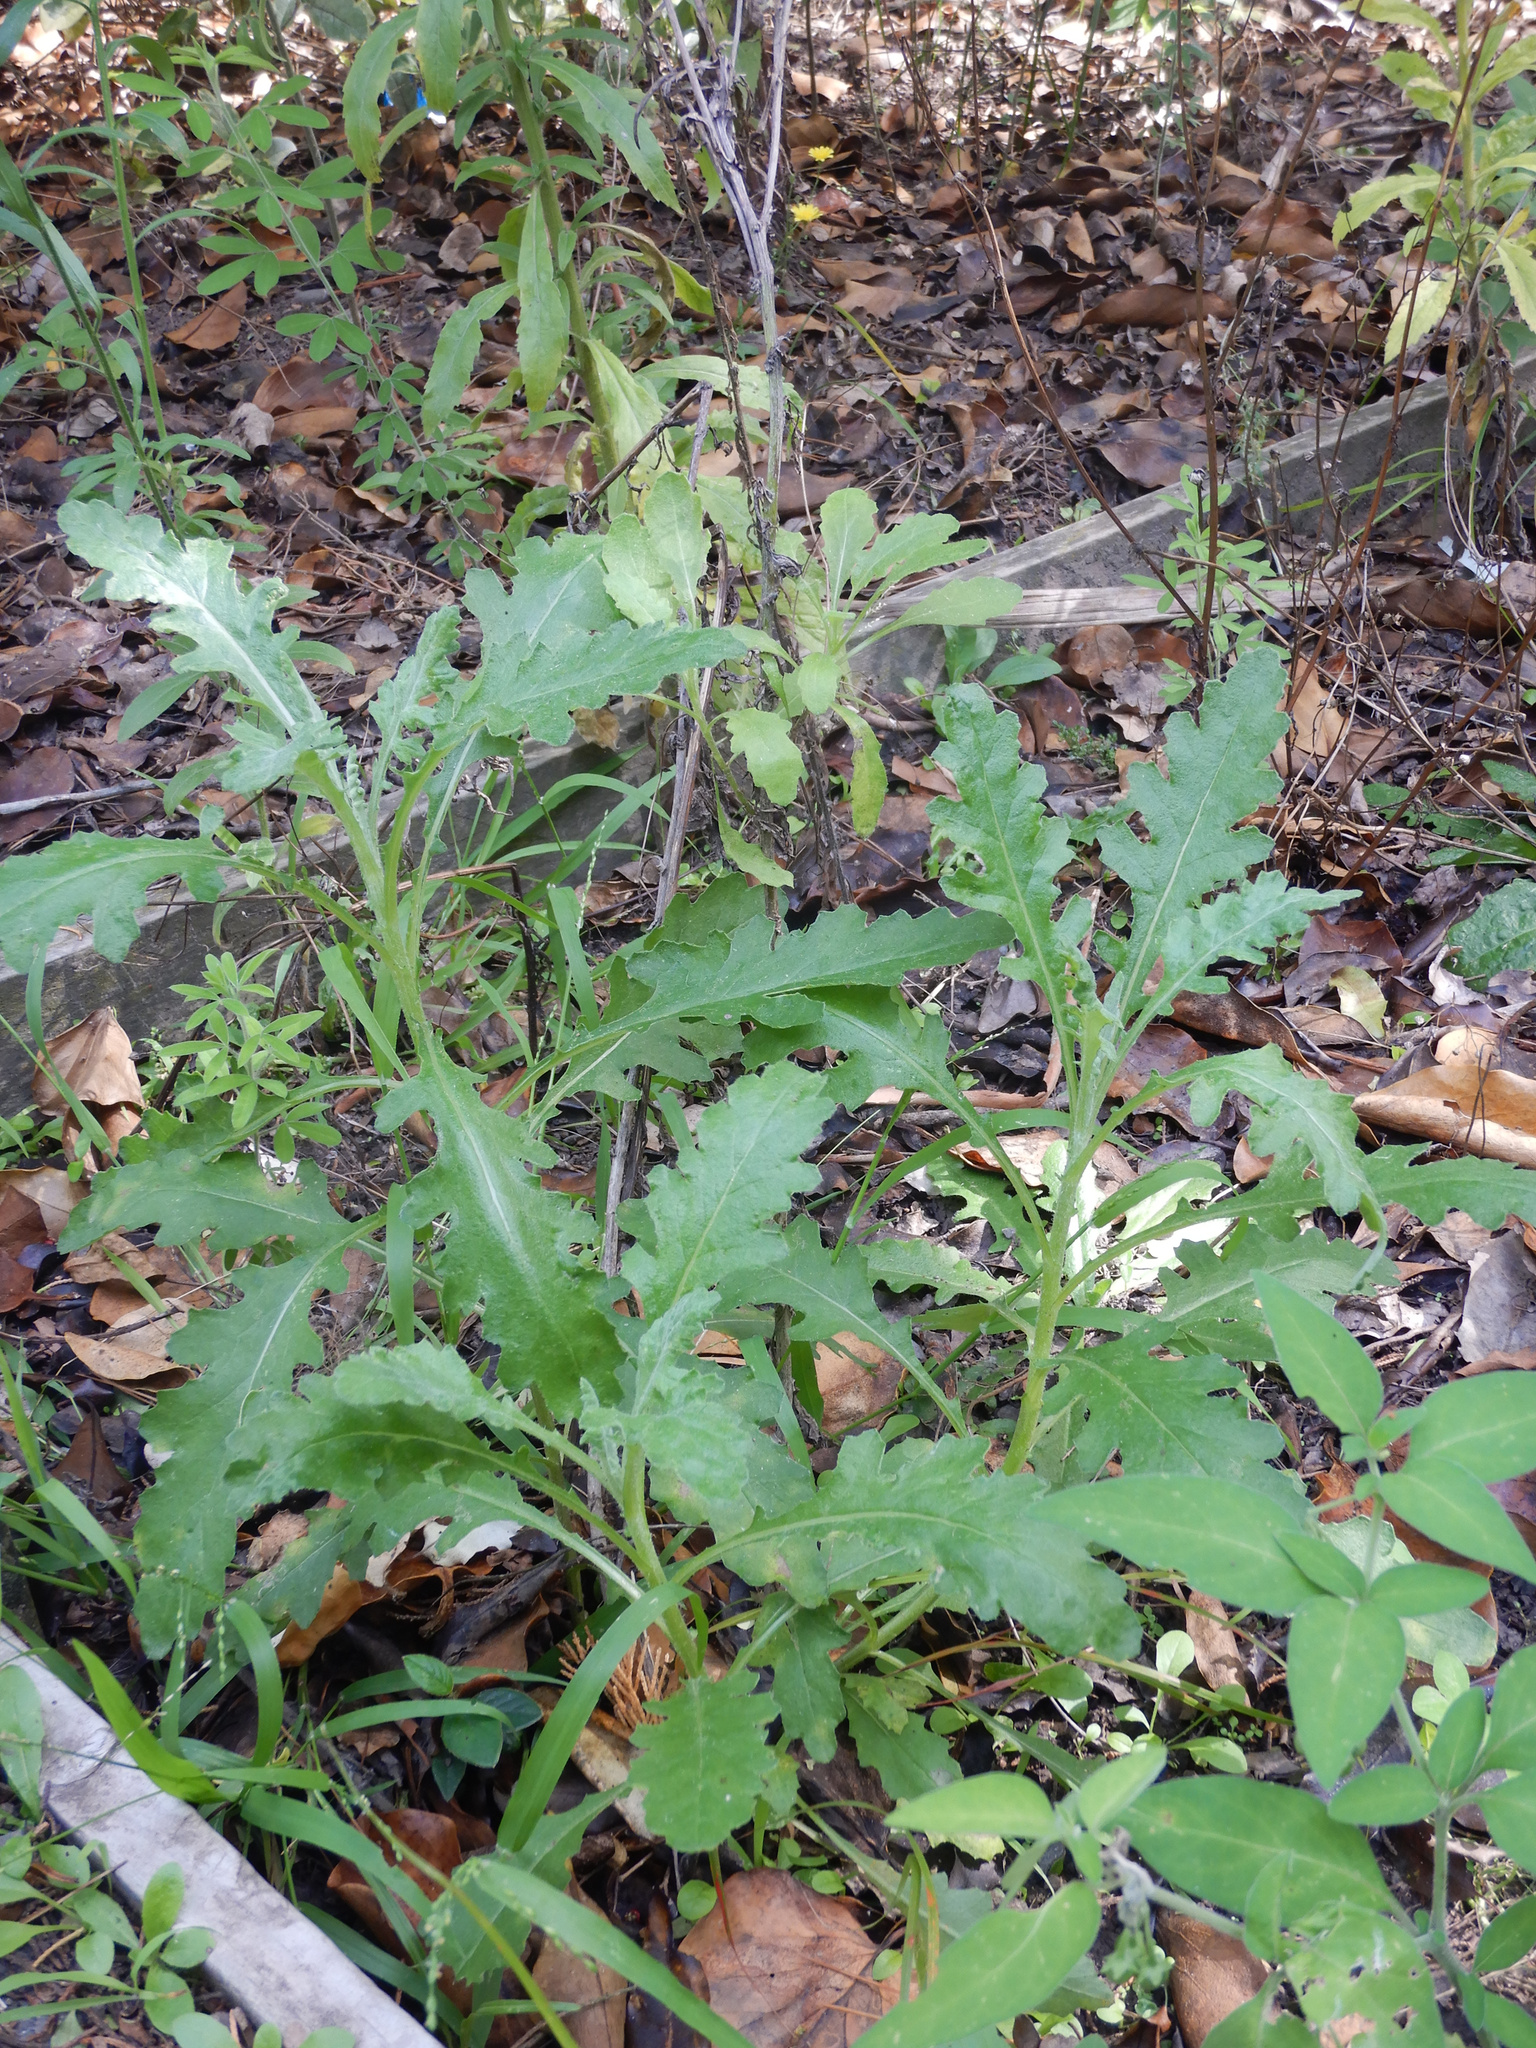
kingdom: Plantae
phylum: Tracheophyta
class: Magnoliopsida
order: Asterales
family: Asteraceae
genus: Senecio
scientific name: Senecio glomeratus
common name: Cutleaf burnweed
